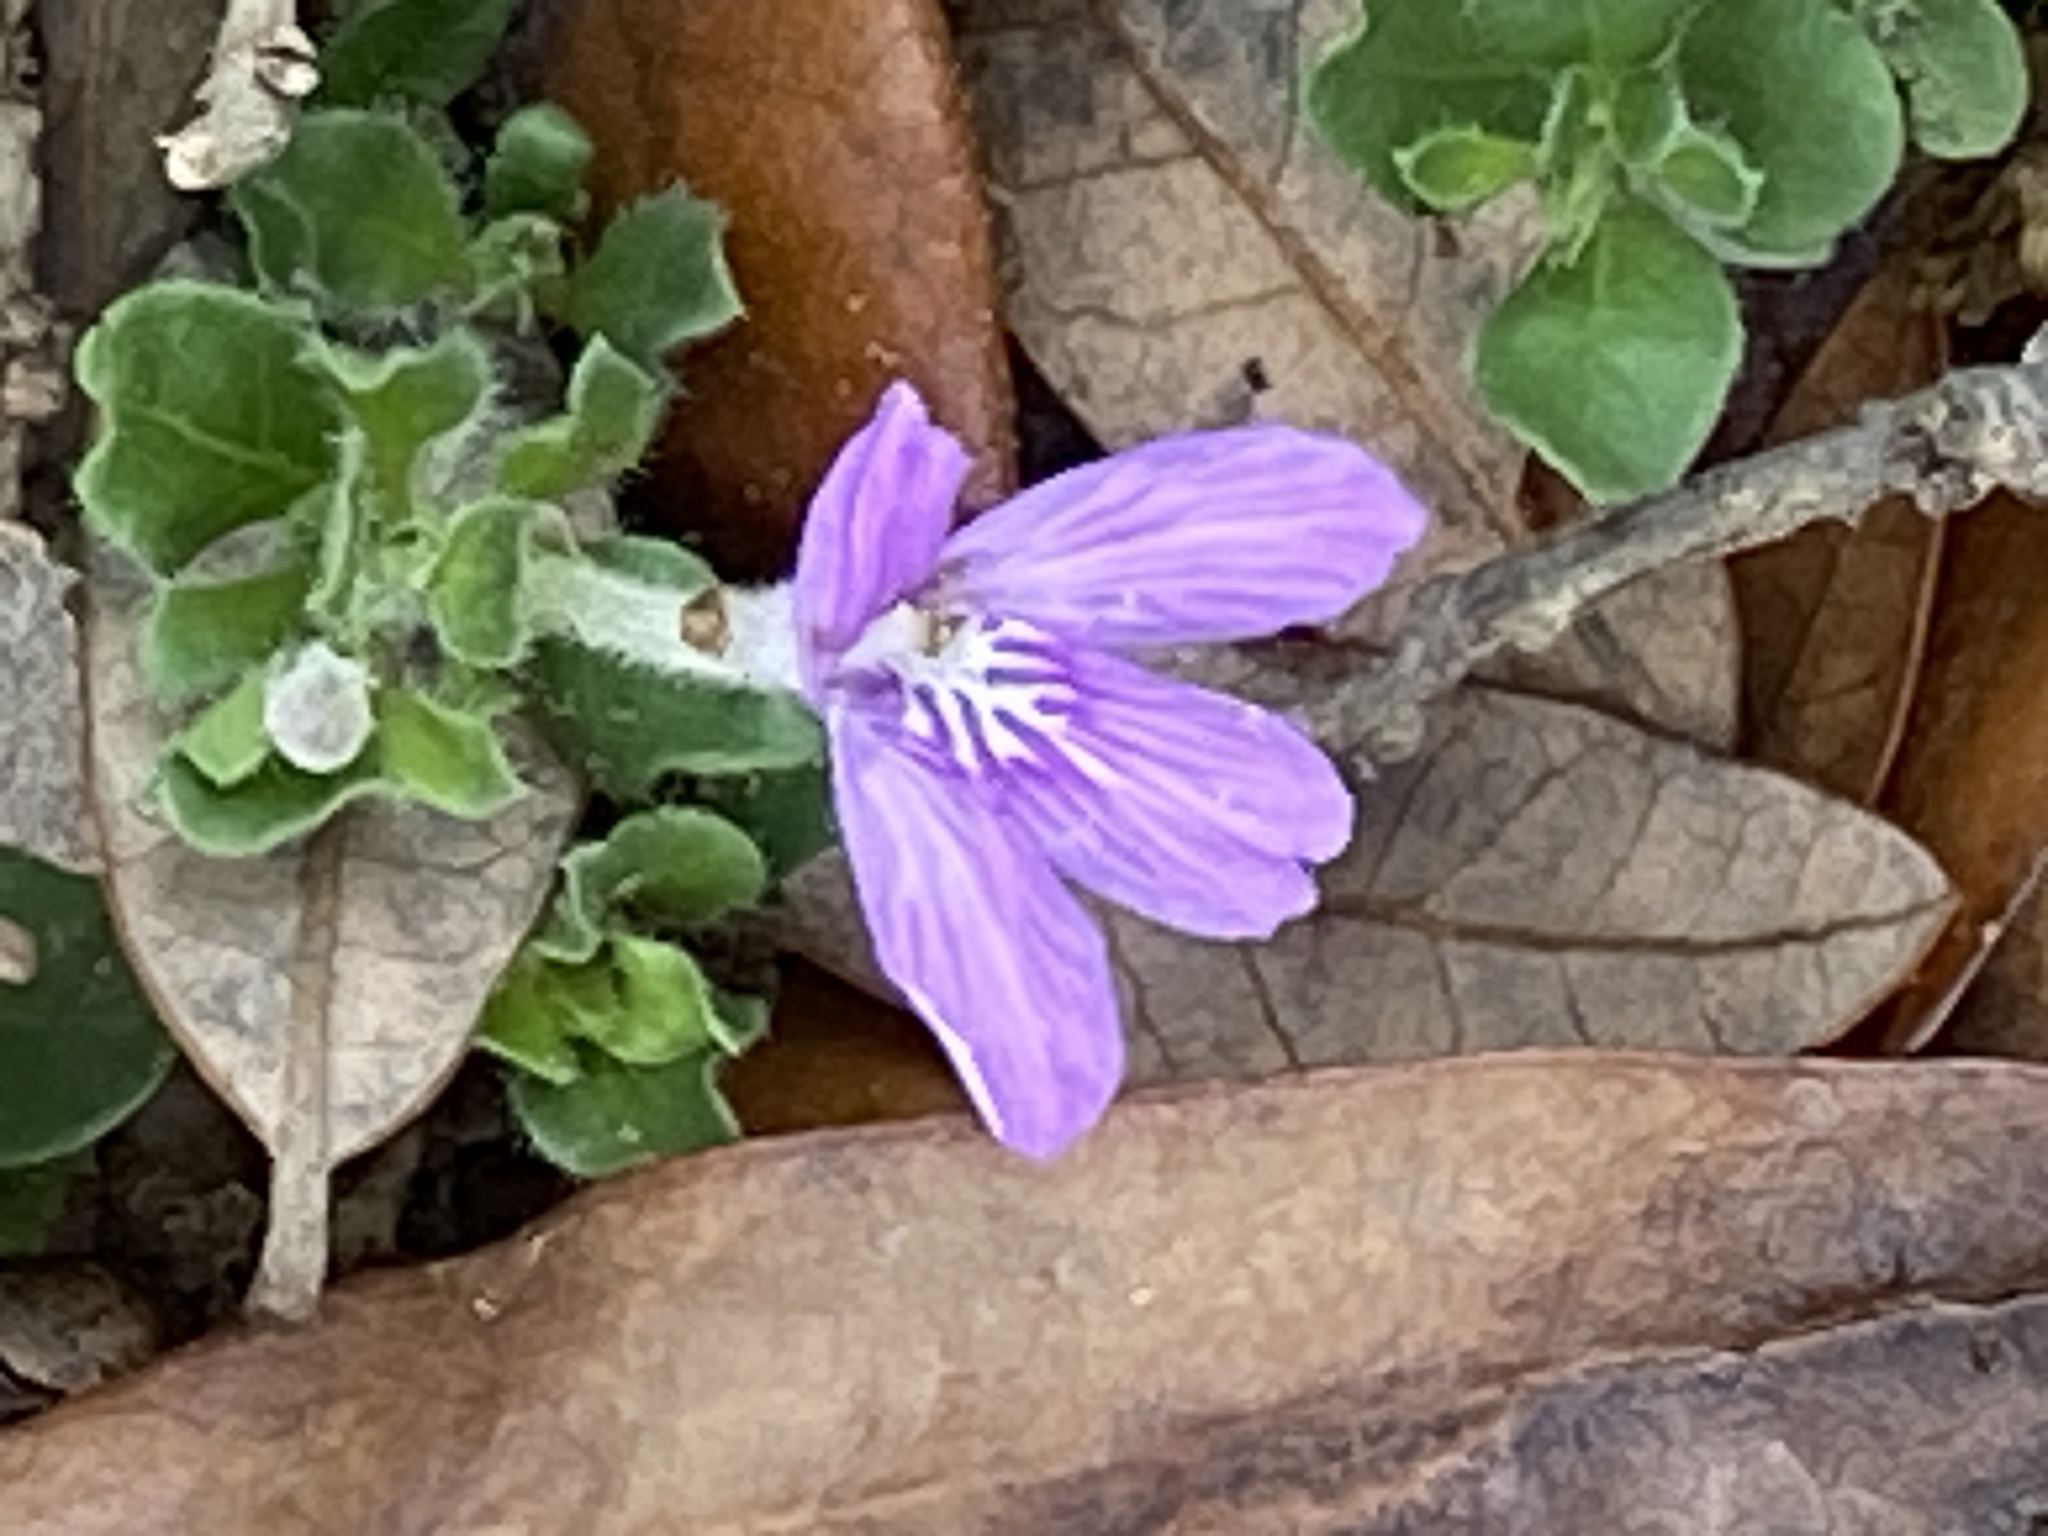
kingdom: Plantae
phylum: Tracheophyta
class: Magnoliopsida
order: Lamiales
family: Acanthaceae
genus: Justicia
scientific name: Justicia pilosella
